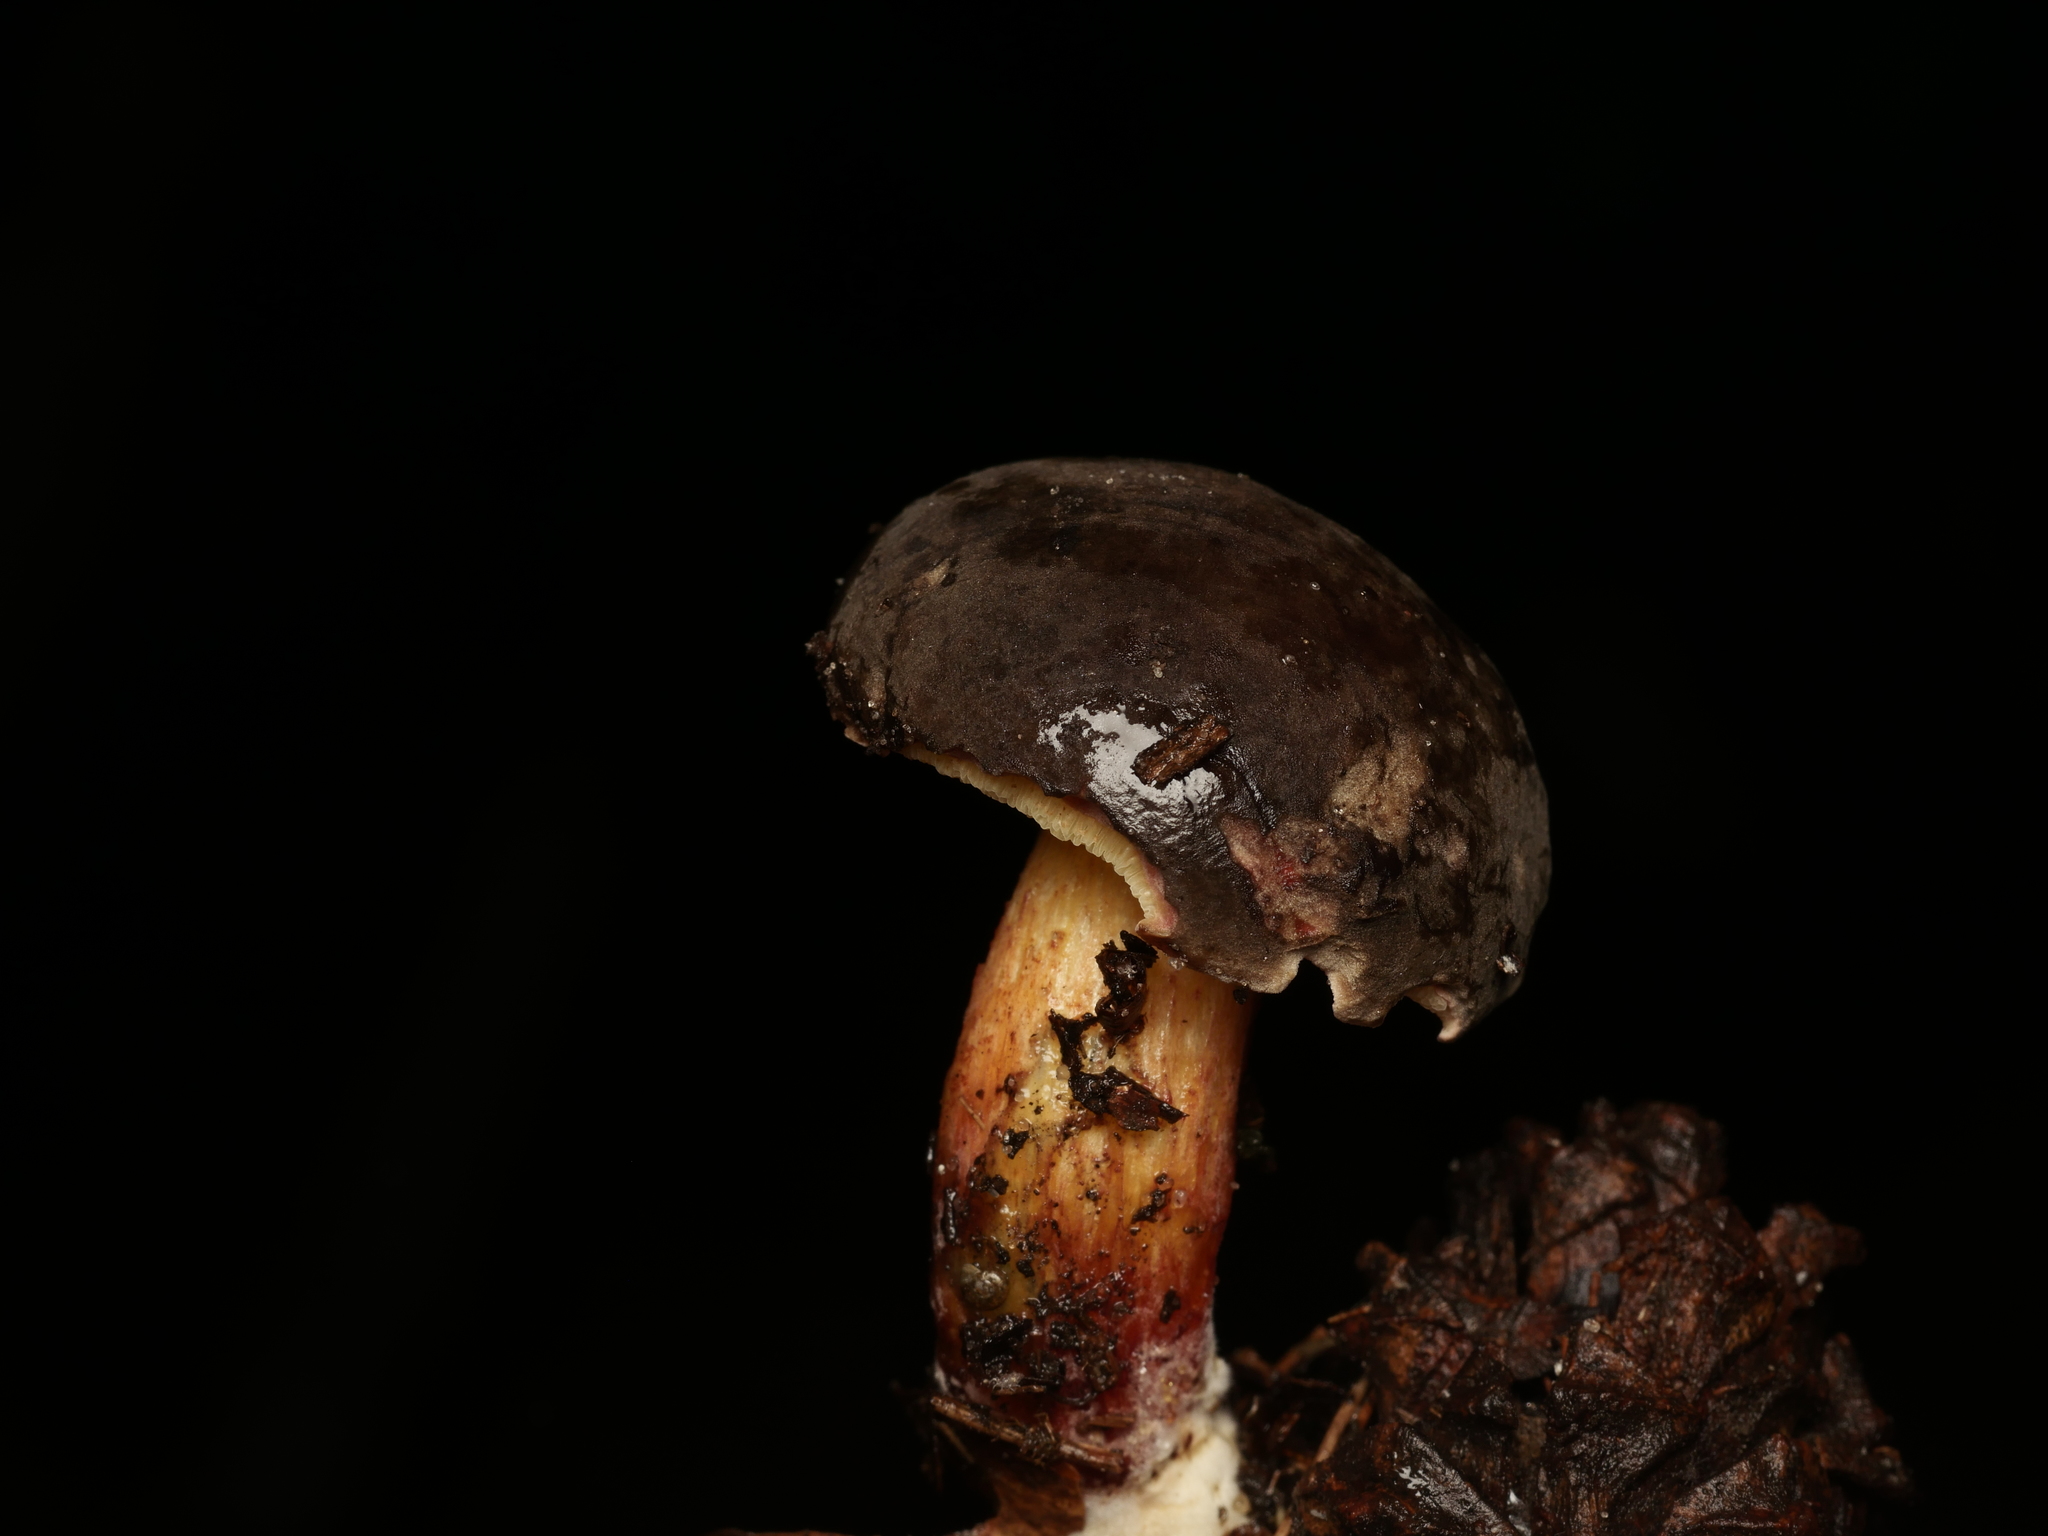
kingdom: Fungi
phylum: Basidiomycota
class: Agaricomycetes
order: Boletales
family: Boletaceae
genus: Xerocomellus
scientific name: Xerocomellus pruinatus
